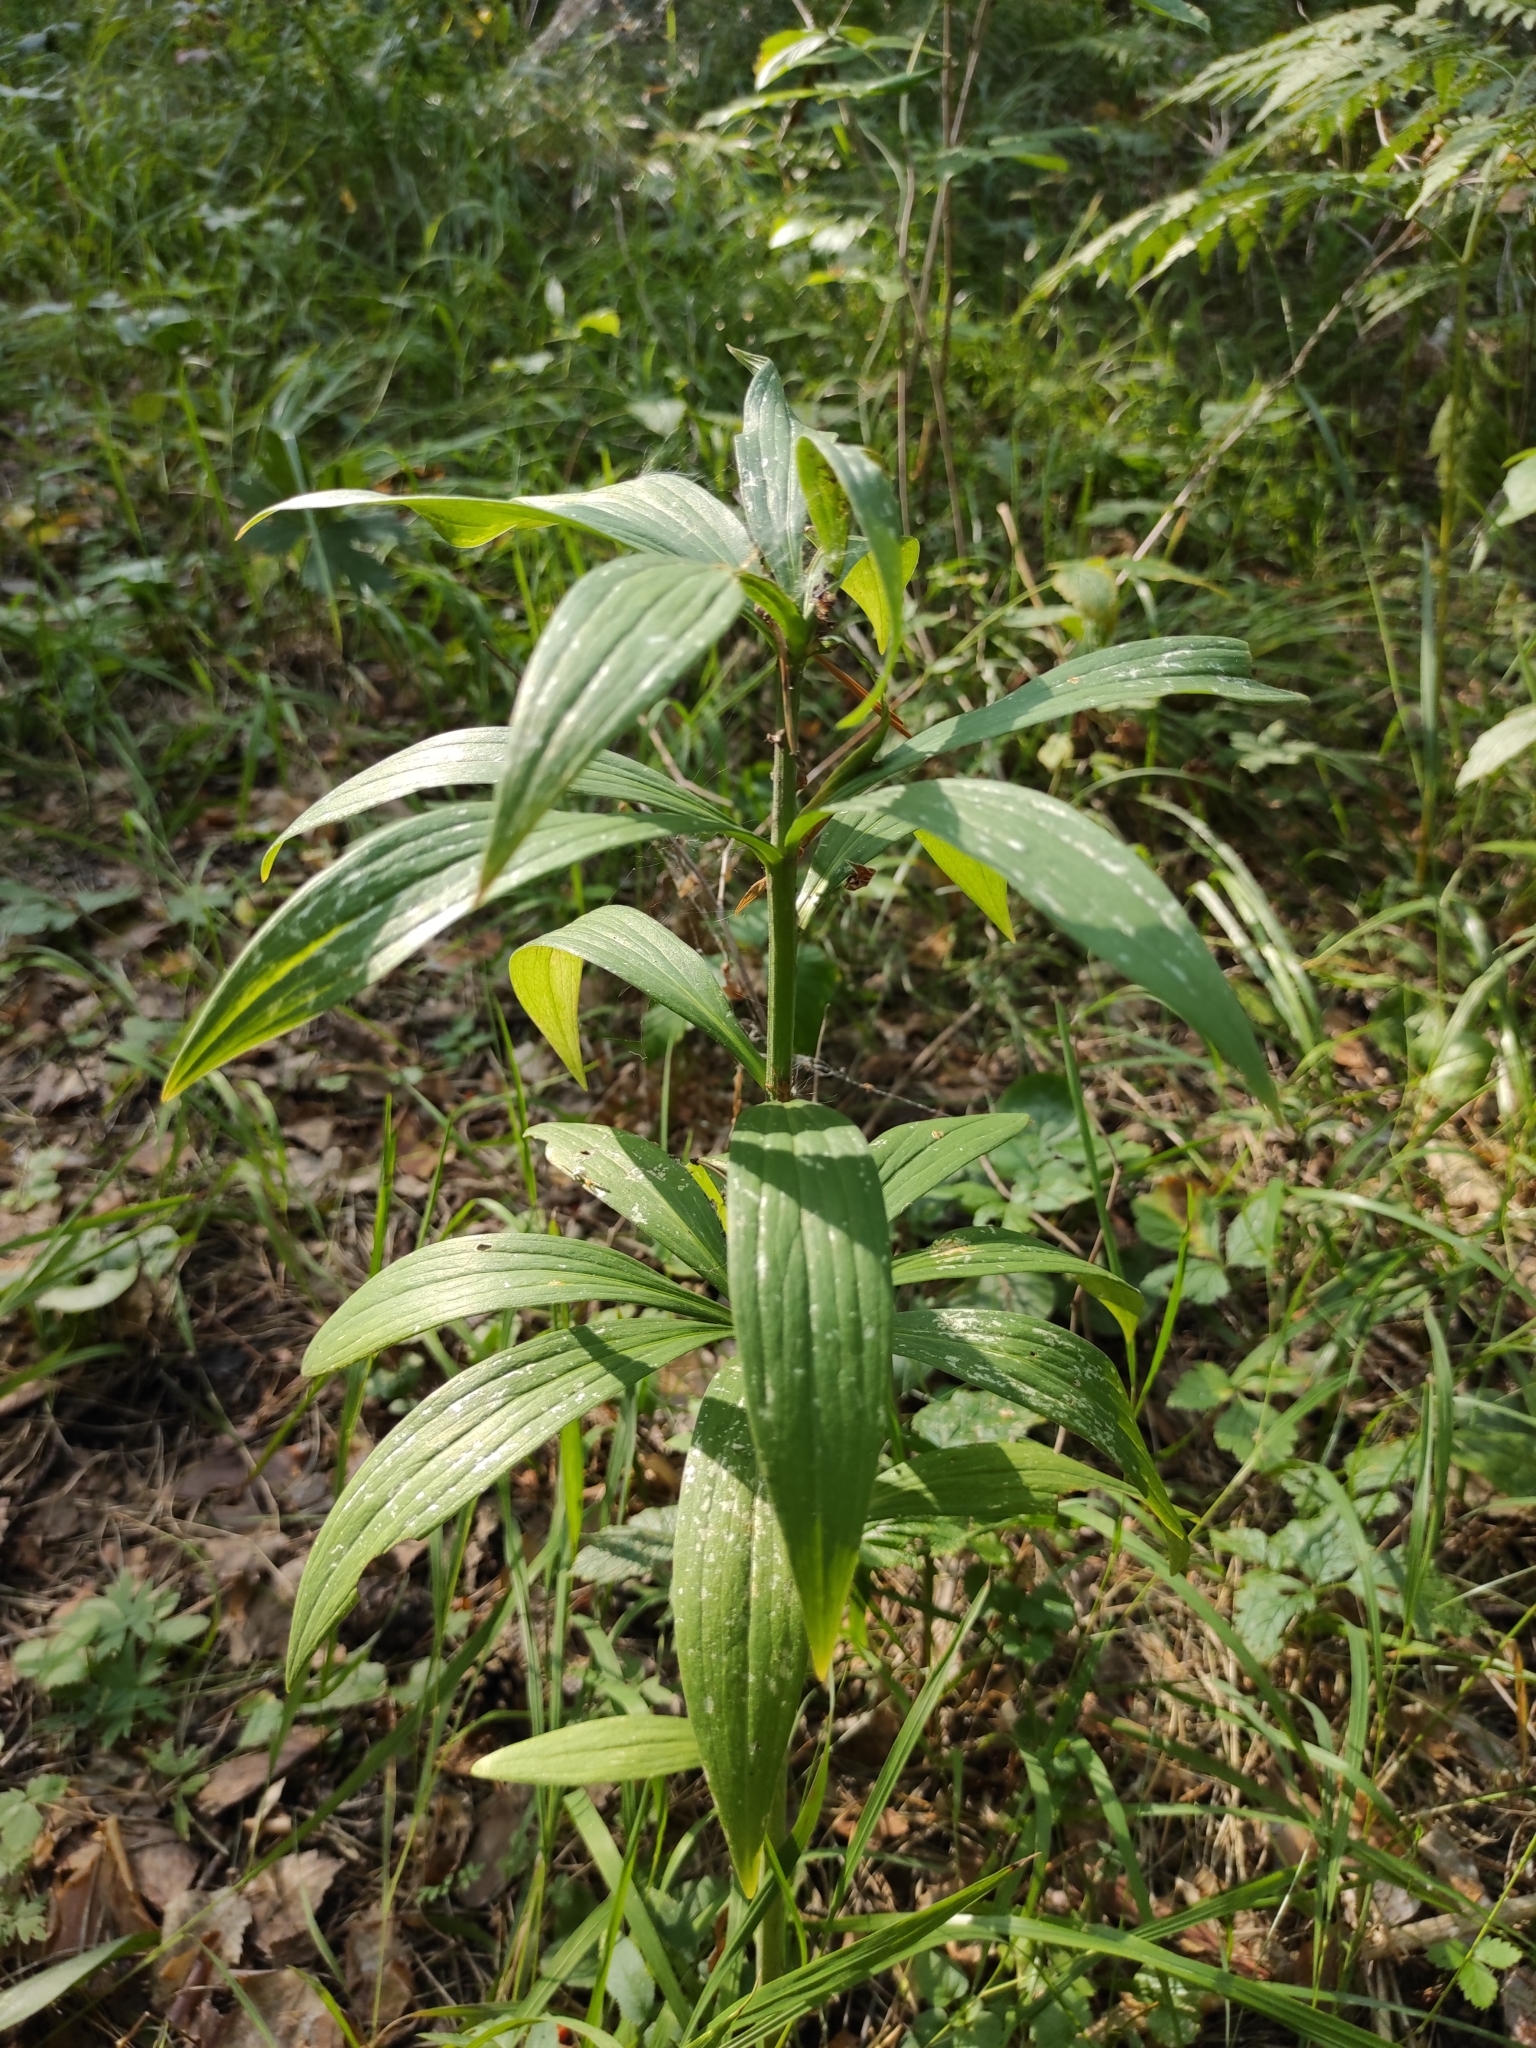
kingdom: Plantae
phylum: Tracheophyta
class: Liliopsida
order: Liliales
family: Liliaceae
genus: Lilium
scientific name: Lilium martagon
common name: Martagon lily
